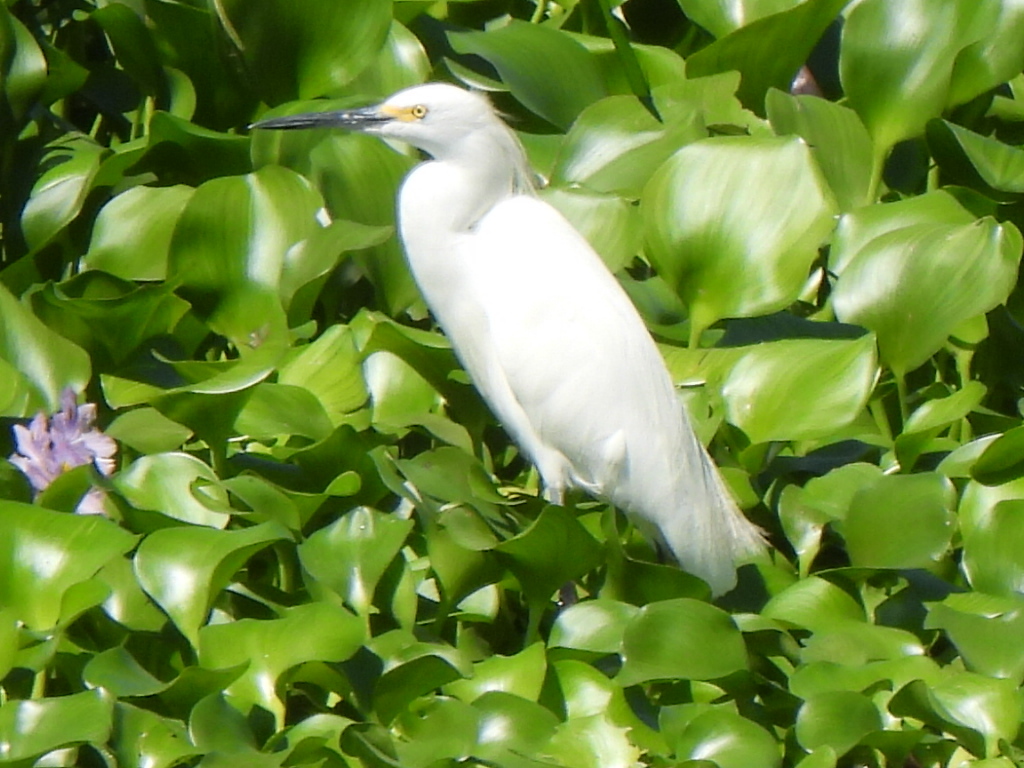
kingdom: Animalia
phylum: Chordata
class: Aves
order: Pelecaniformes
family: Ardeidae
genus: Egretta
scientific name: Egretta thula
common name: Snowy egret
